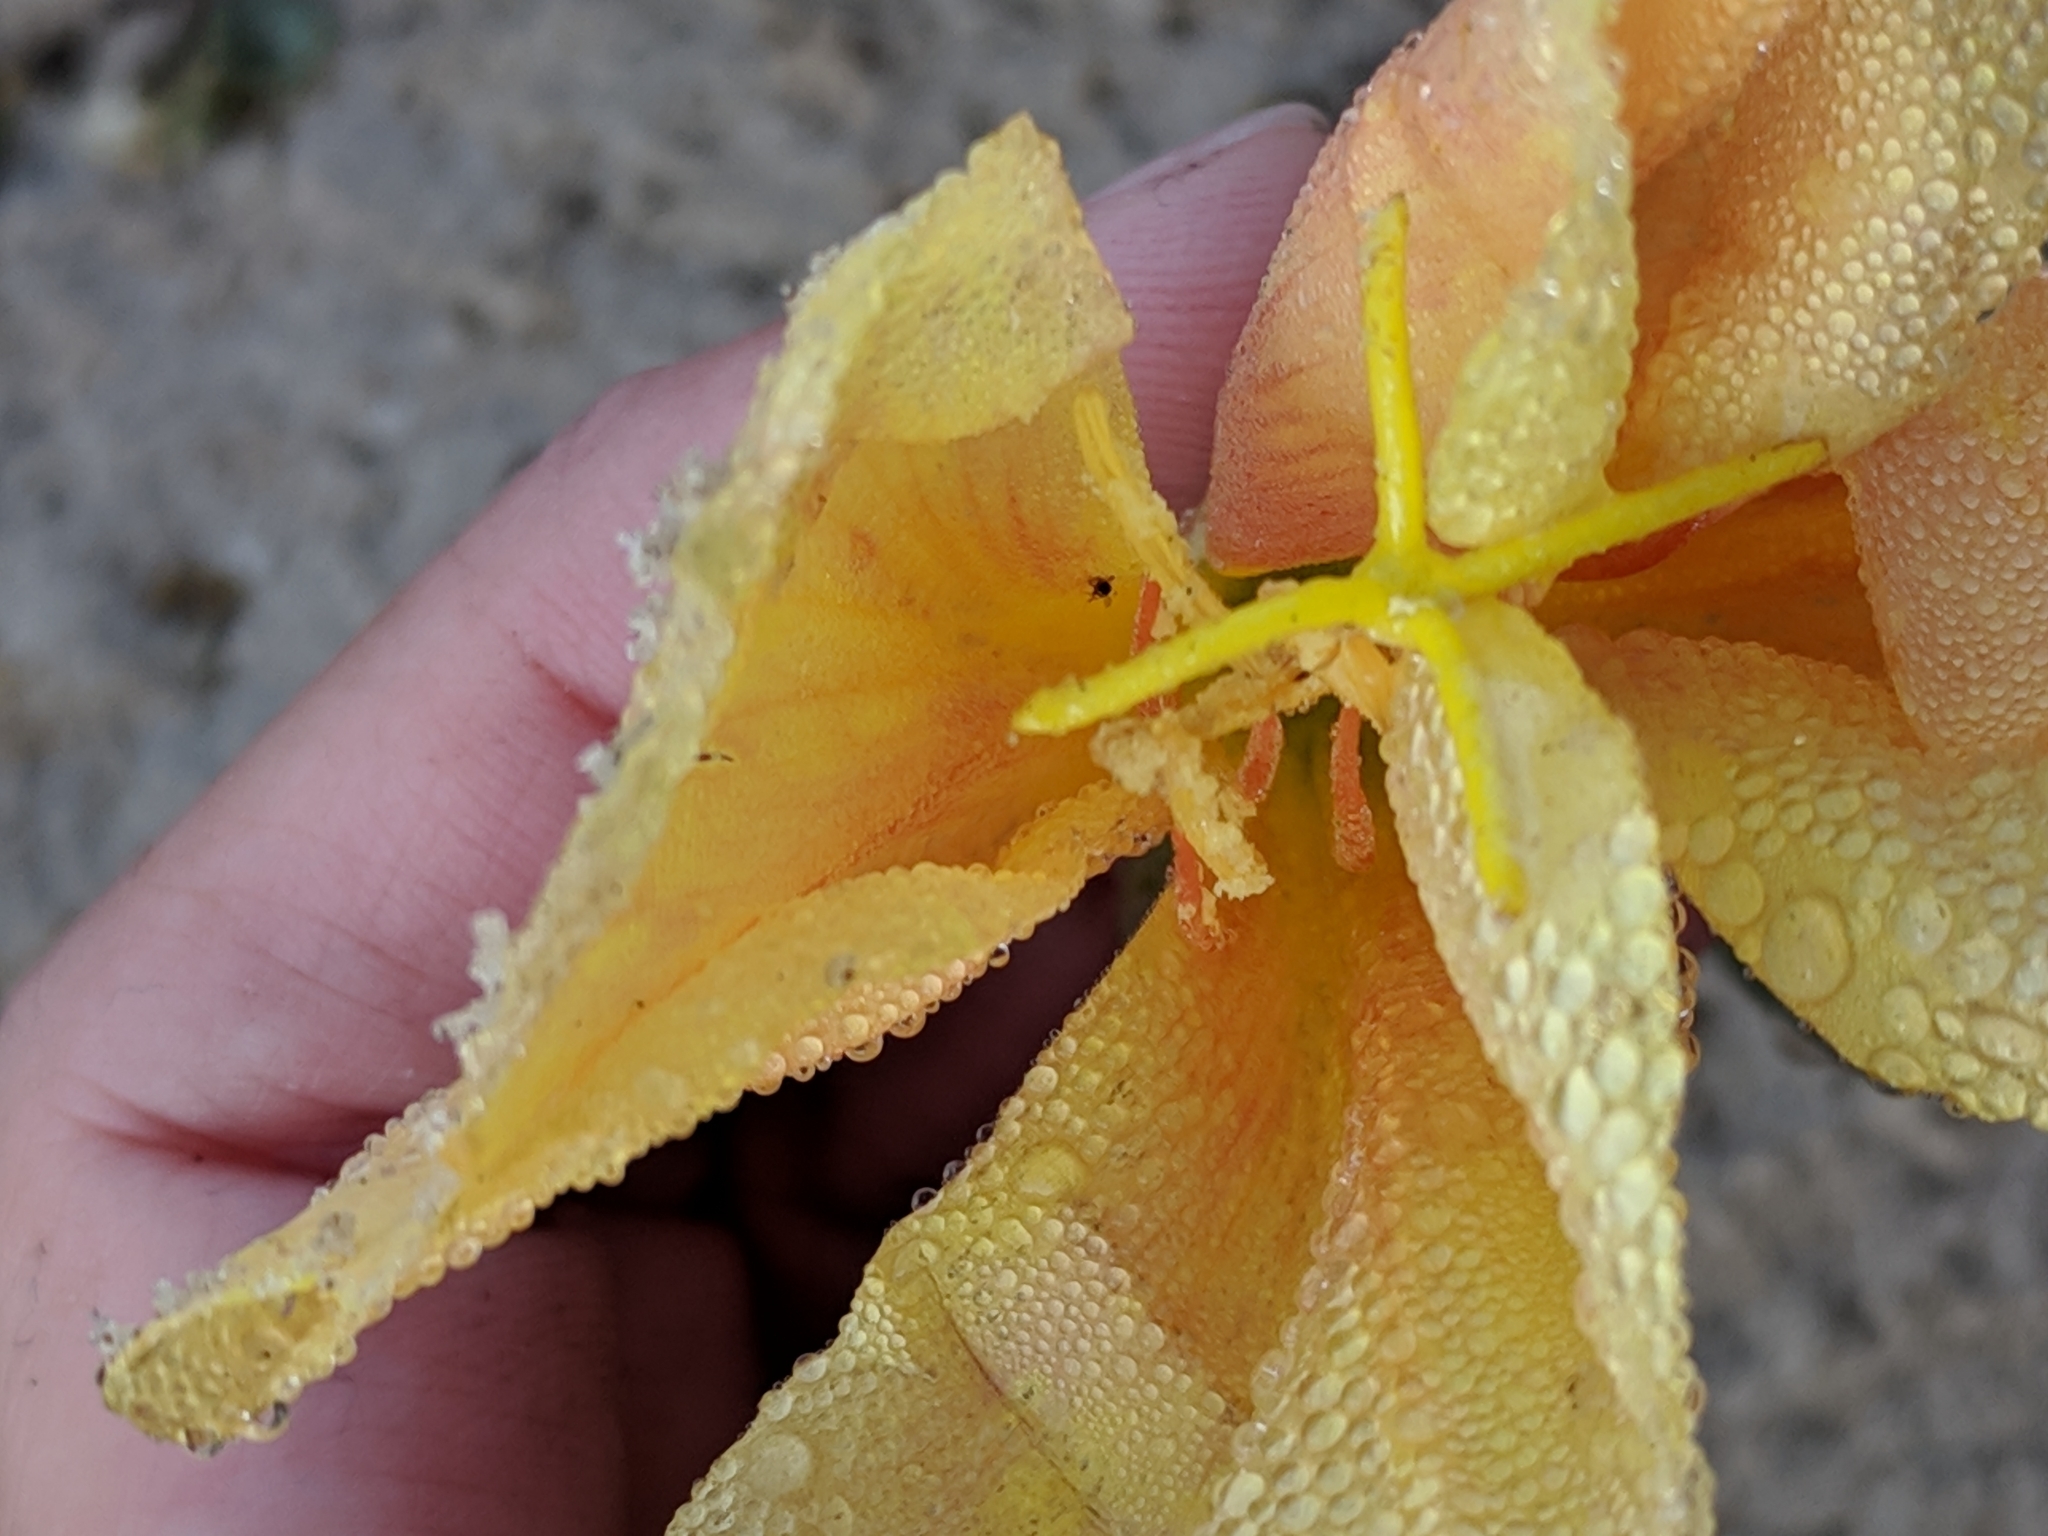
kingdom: Plantae
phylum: Tracheophyta
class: Magnoliopsida
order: Myrtales
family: Onagraceae
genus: Oenothera
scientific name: Oenothera drummondii
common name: Beach evening-primrose
